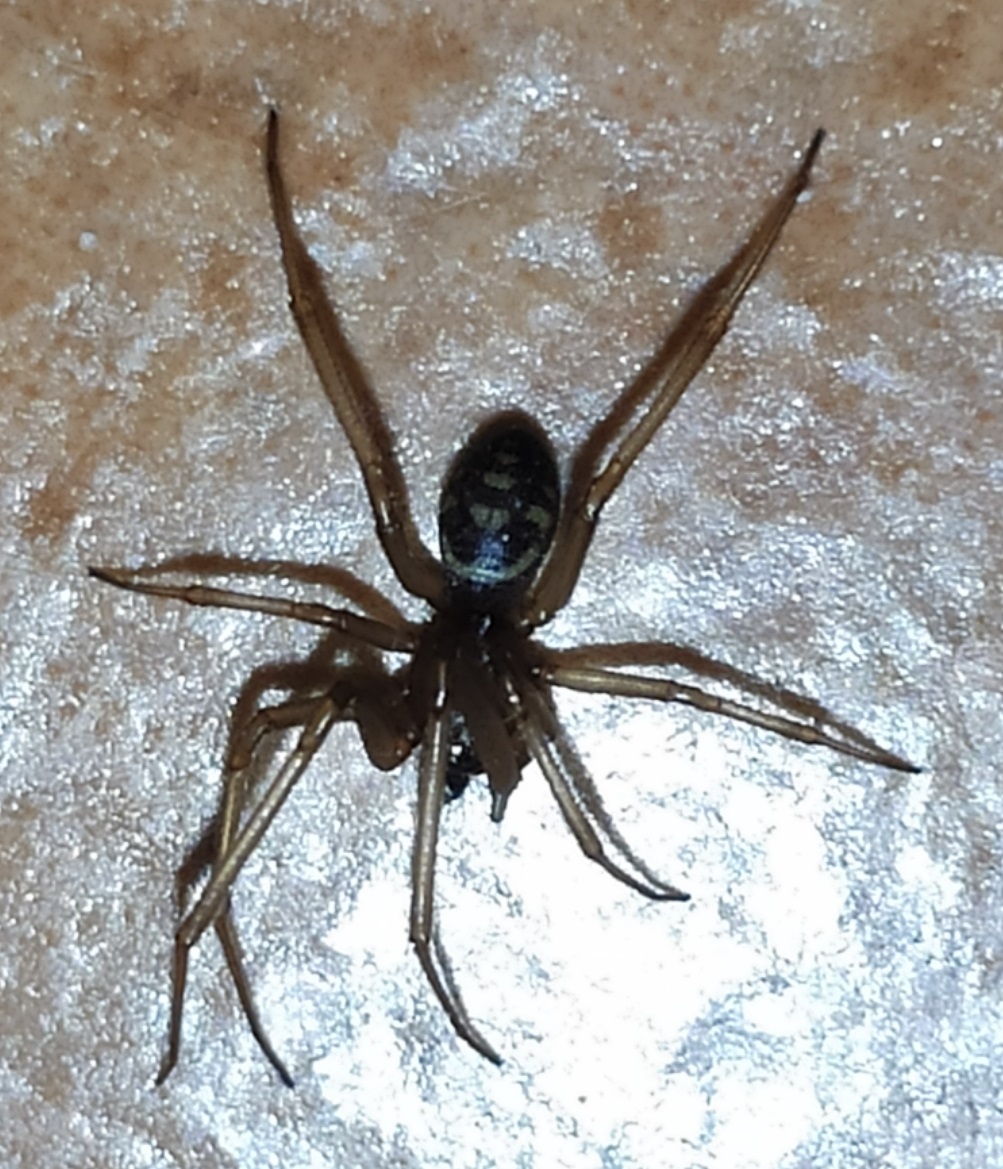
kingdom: Animalia
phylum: Arthropoda
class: Arachnida
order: Araneae
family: Theridiidae
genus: Steatoda
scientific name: Steatoda grossa
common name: False black widow
